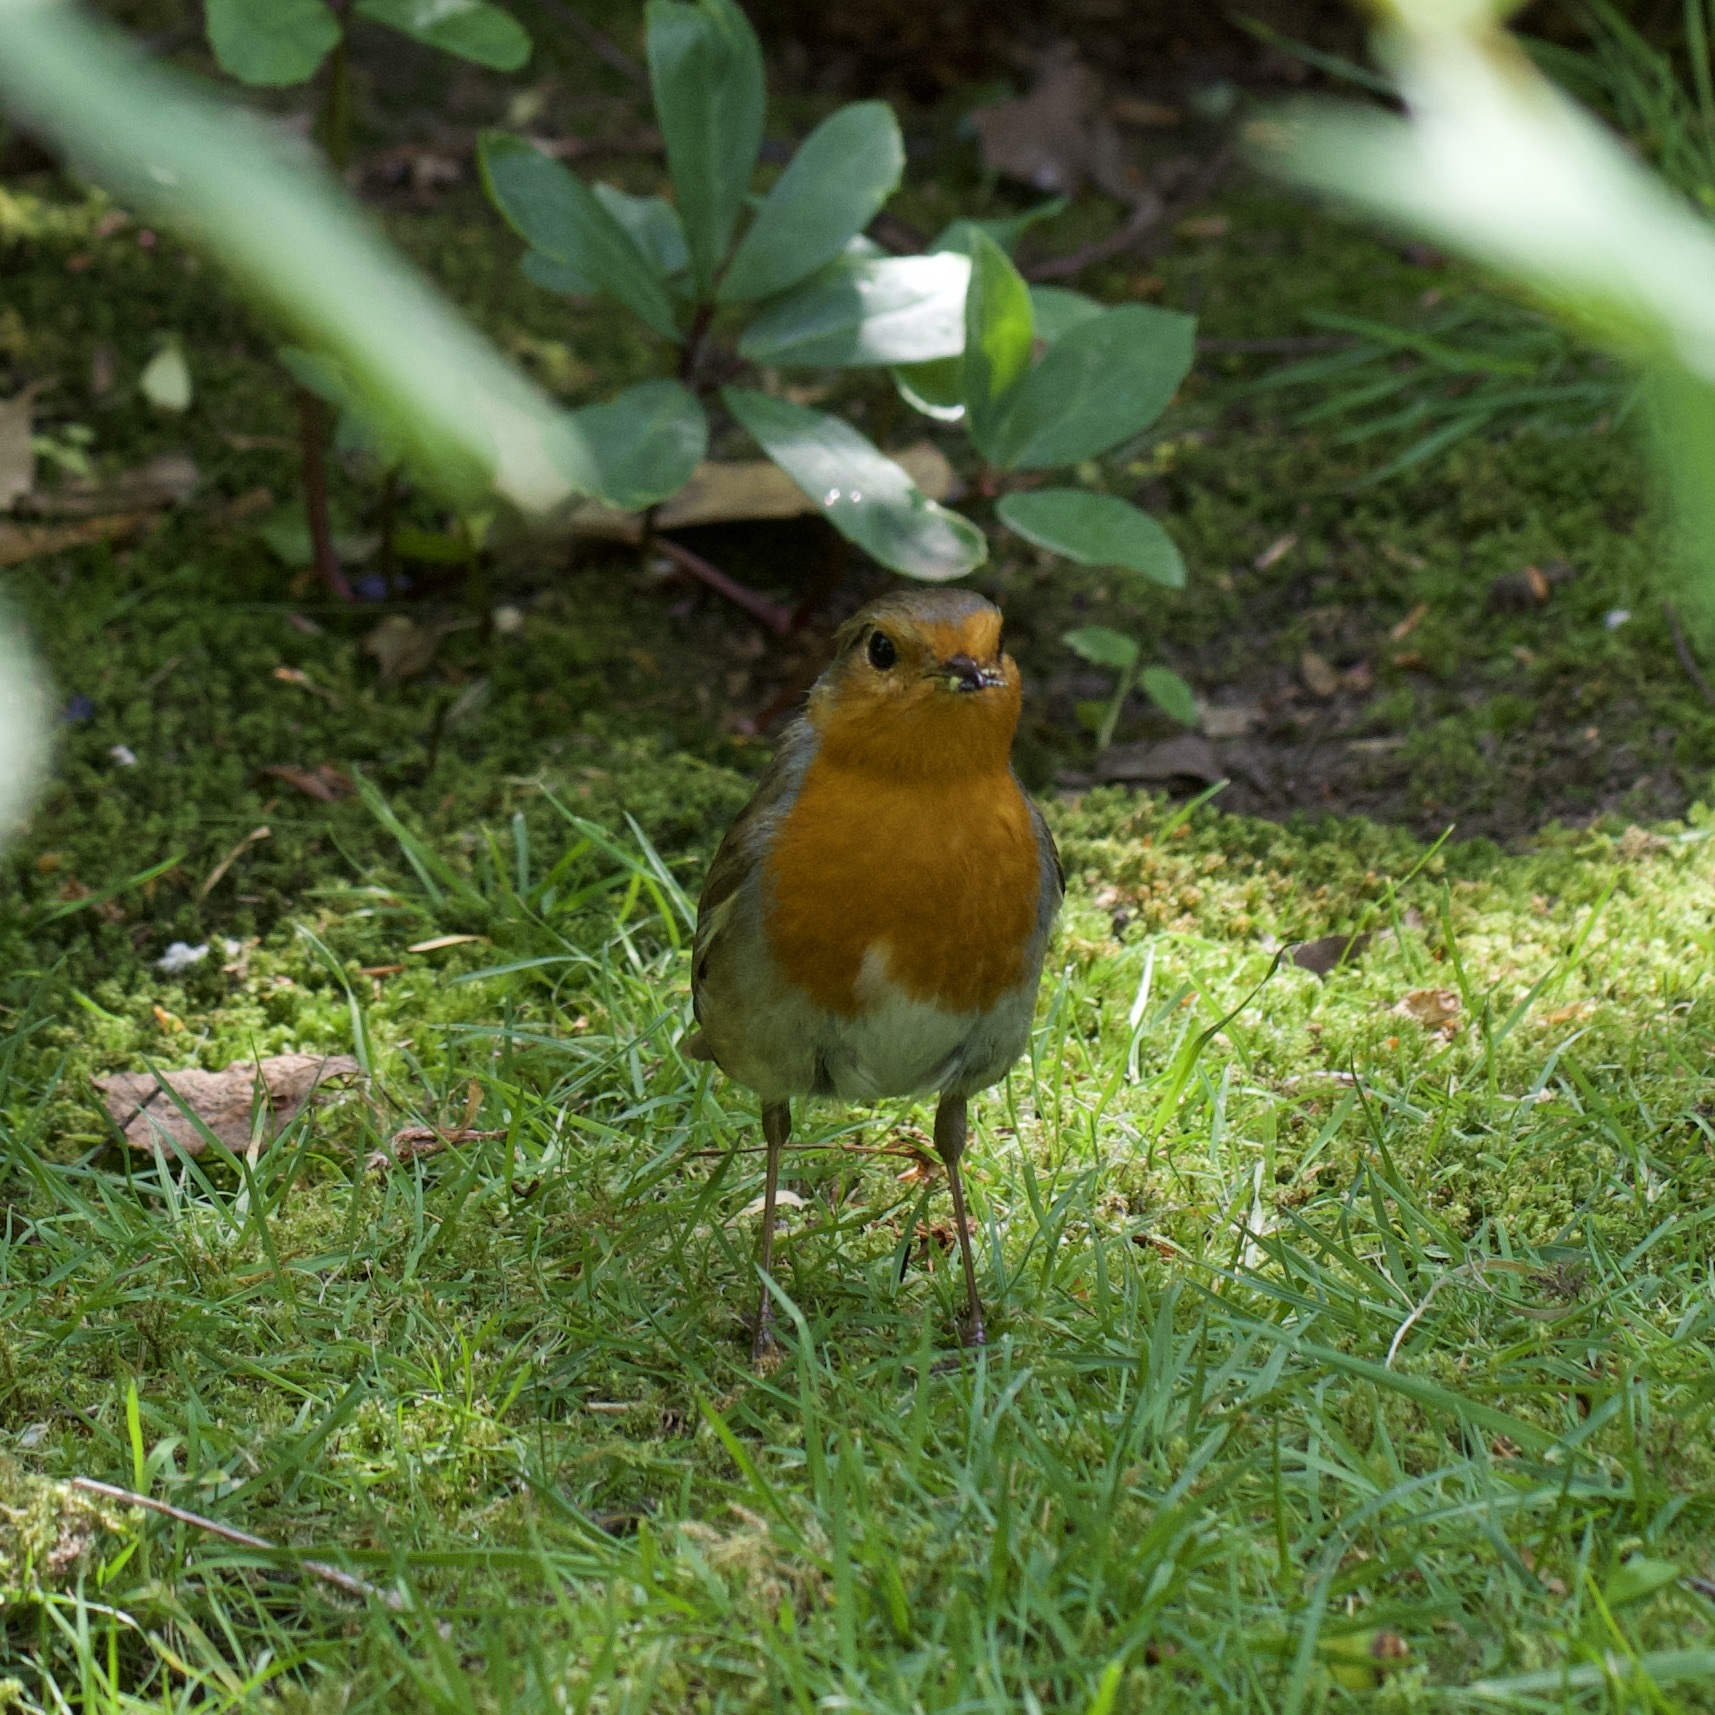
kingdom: Animalia
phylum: Chordata
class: Aves
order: Passeriformes
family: Muscicapidae
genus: Erithacus
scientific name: Erithacus rubecula
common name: European robin
